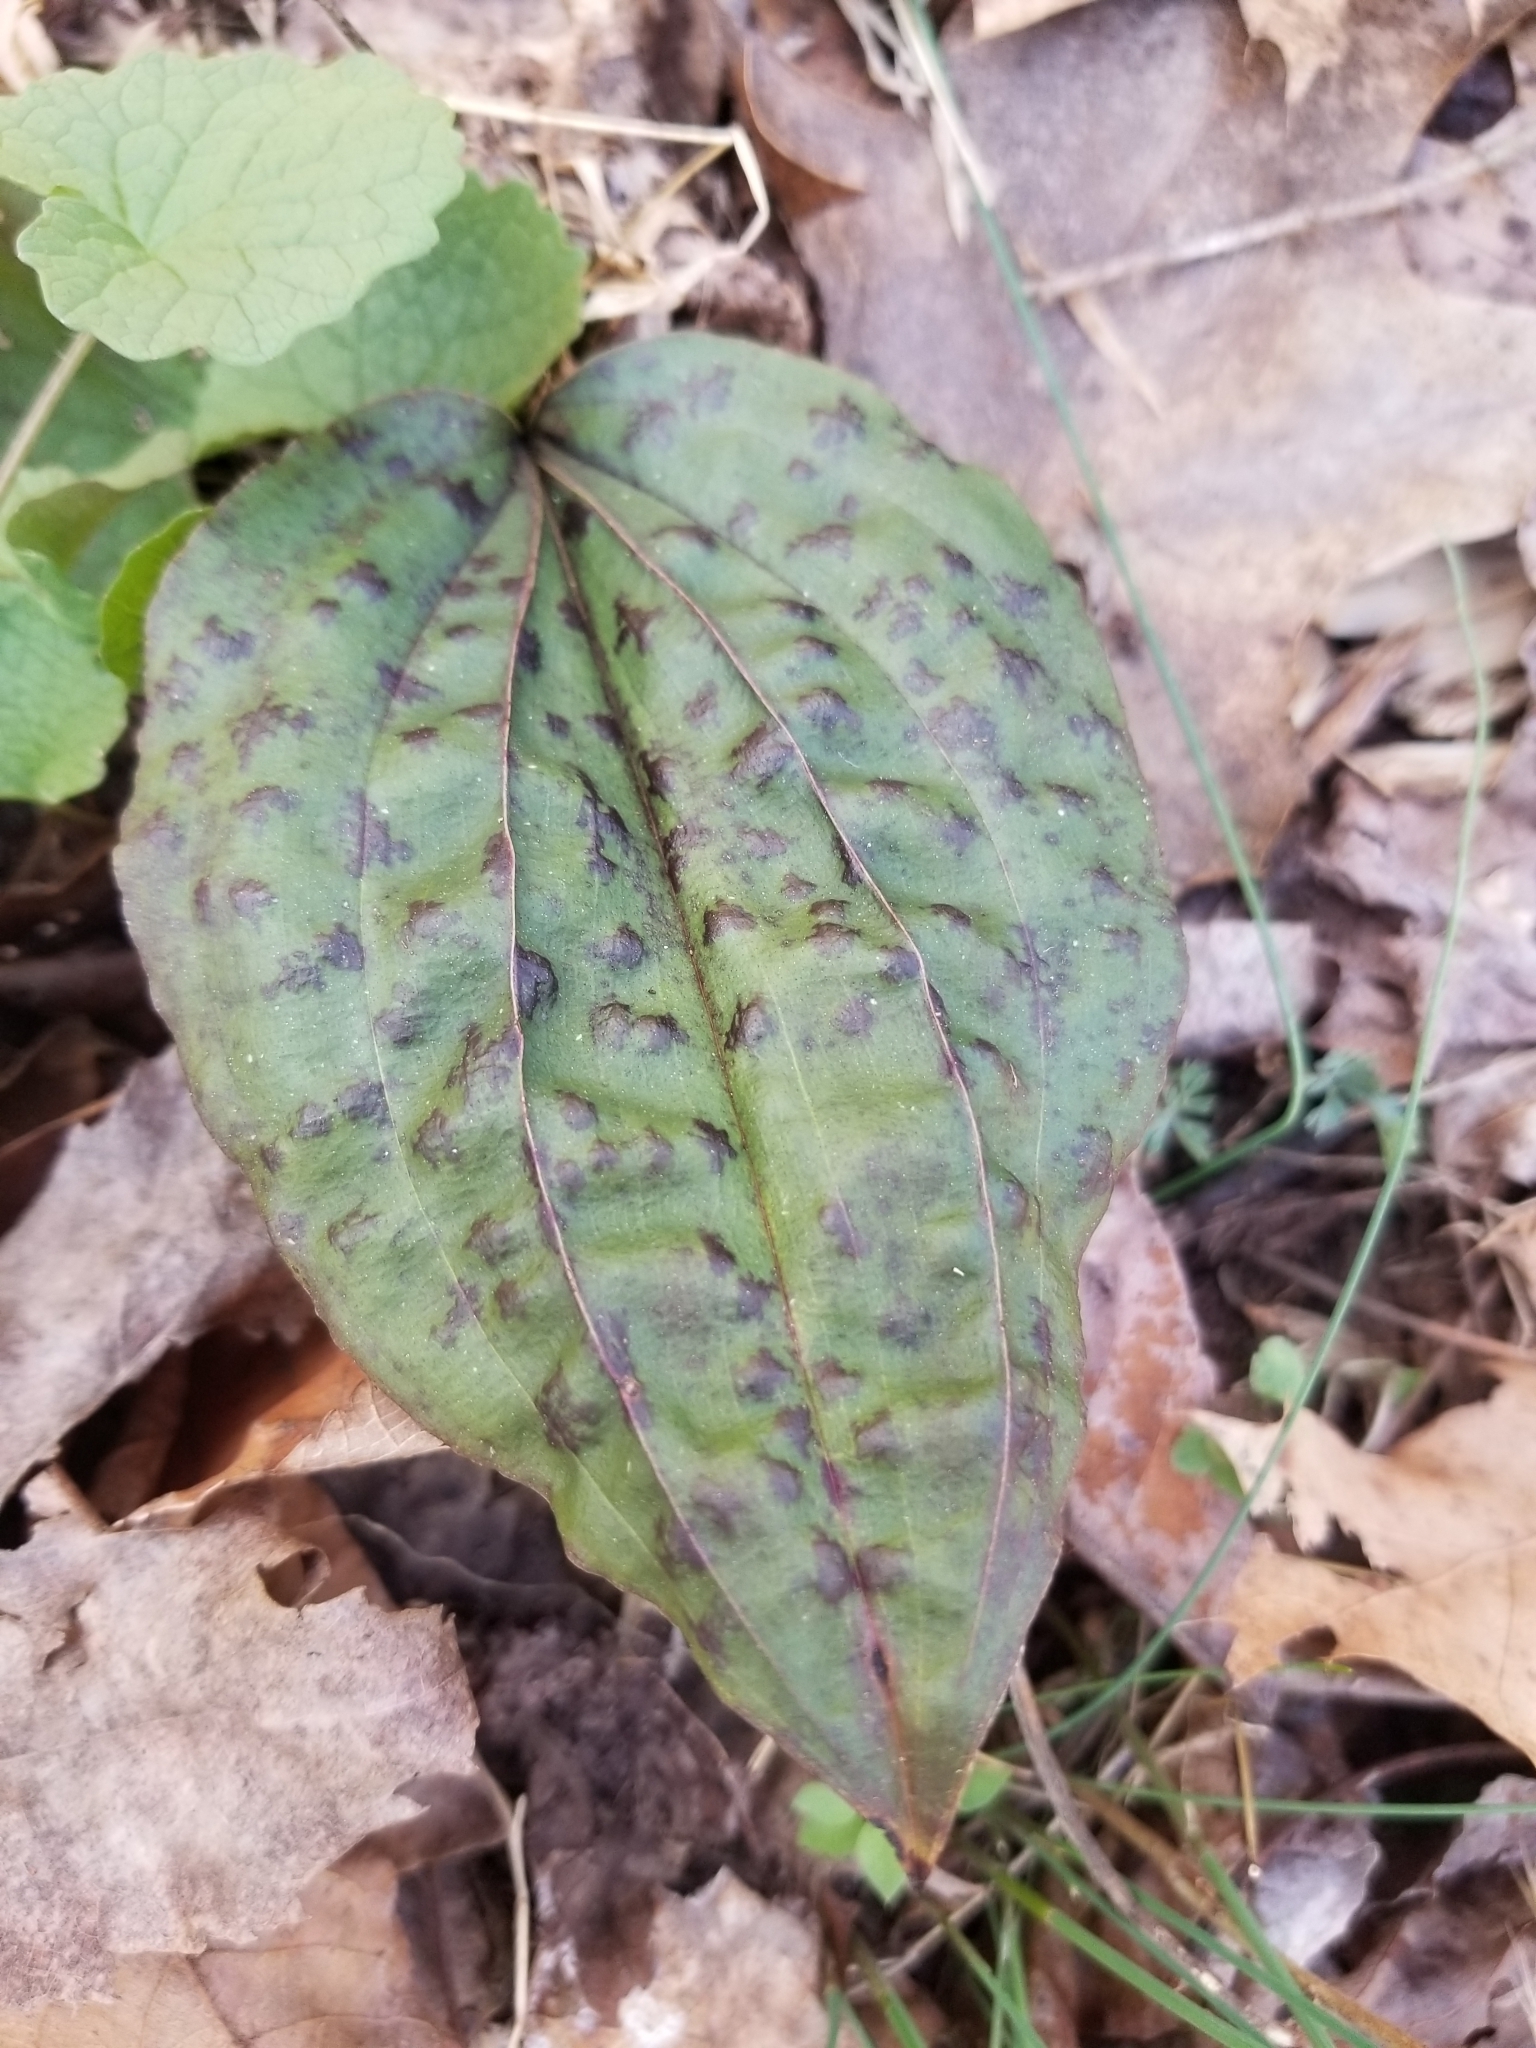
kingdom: Plantae
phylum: Tracheophyta
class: Liliopsida
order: Asparagales
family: Orchidaceae
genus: Tipularia
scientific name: Tipularia discolor
